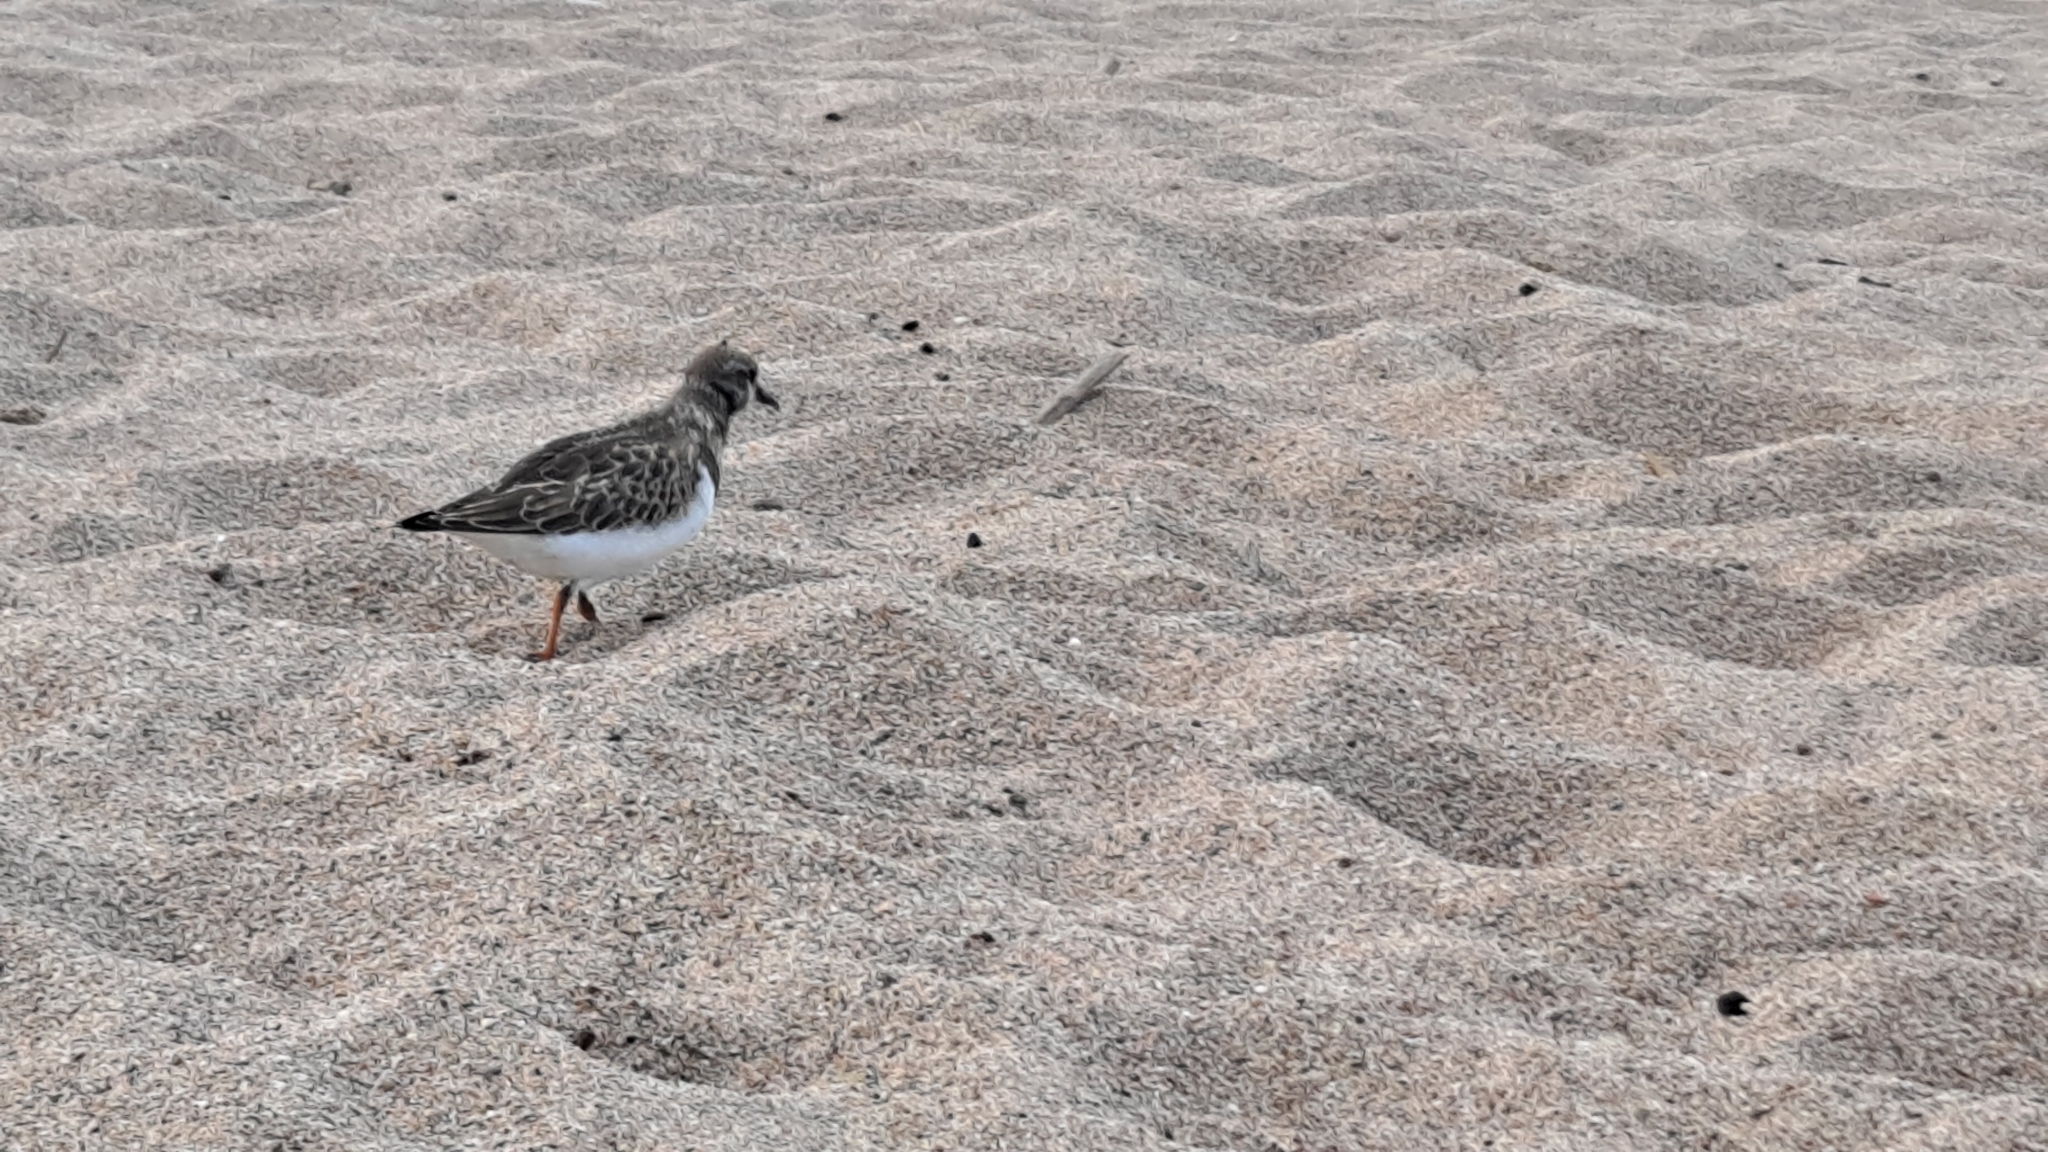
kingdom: Animalia
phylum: Chordata
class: Aves
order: Charadriiformes
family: Scolopacidae
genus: Arenaria
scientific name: Arenaria interpres
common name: Ruddy turnstone
